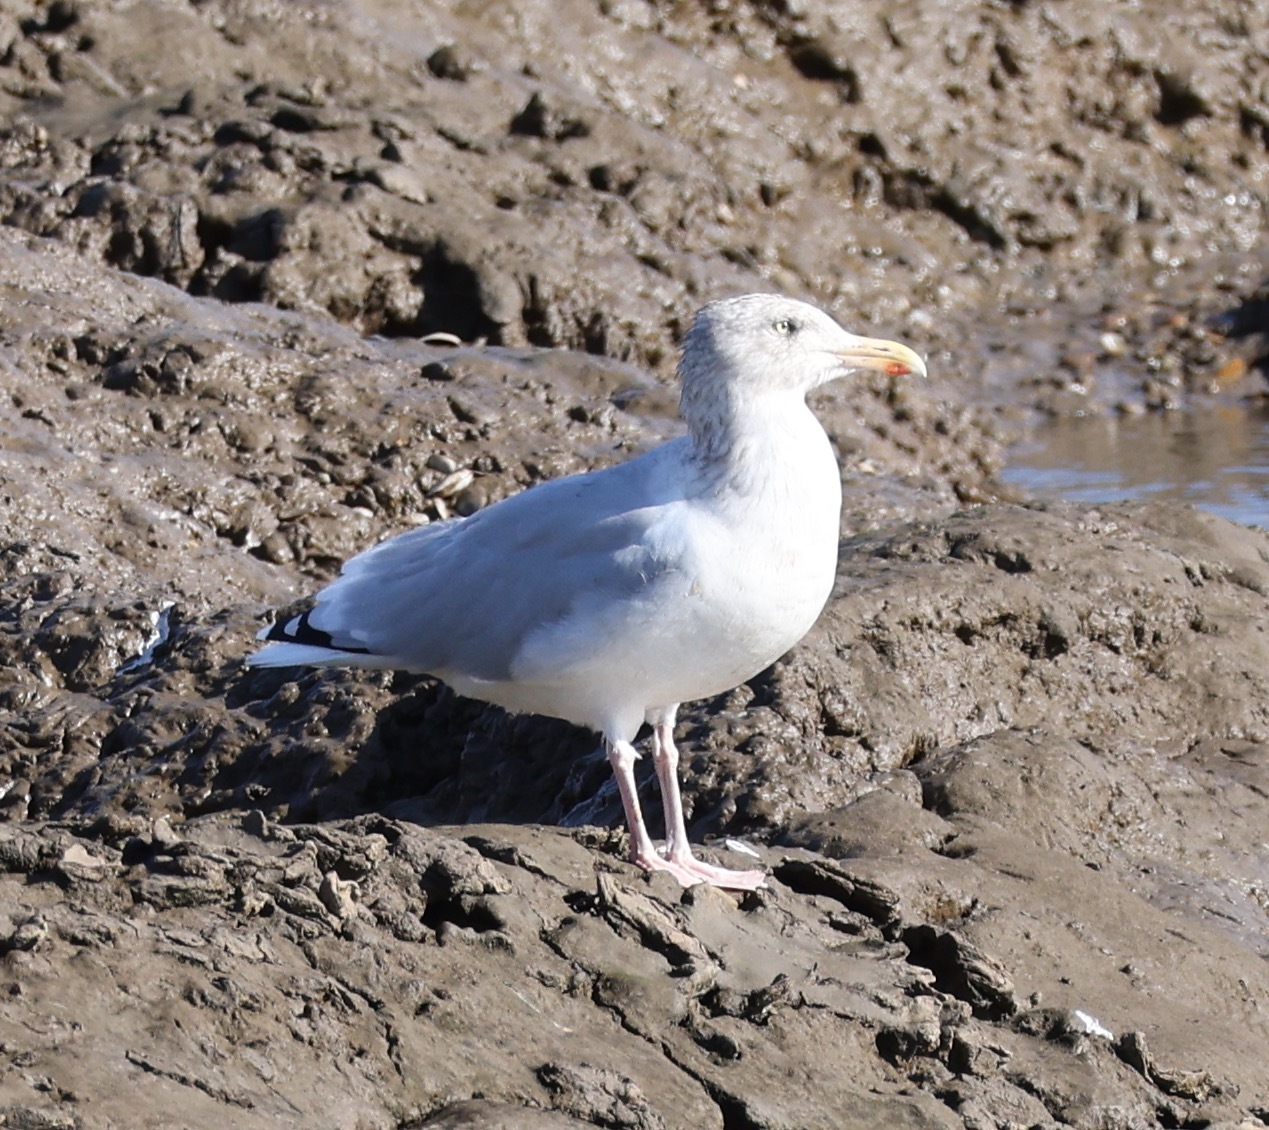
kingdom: Animalia
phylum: Chordata
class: Aves
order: Charadriiformes
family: Laridae
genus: Larus
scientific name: Larus argentatus
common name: Herring gull
